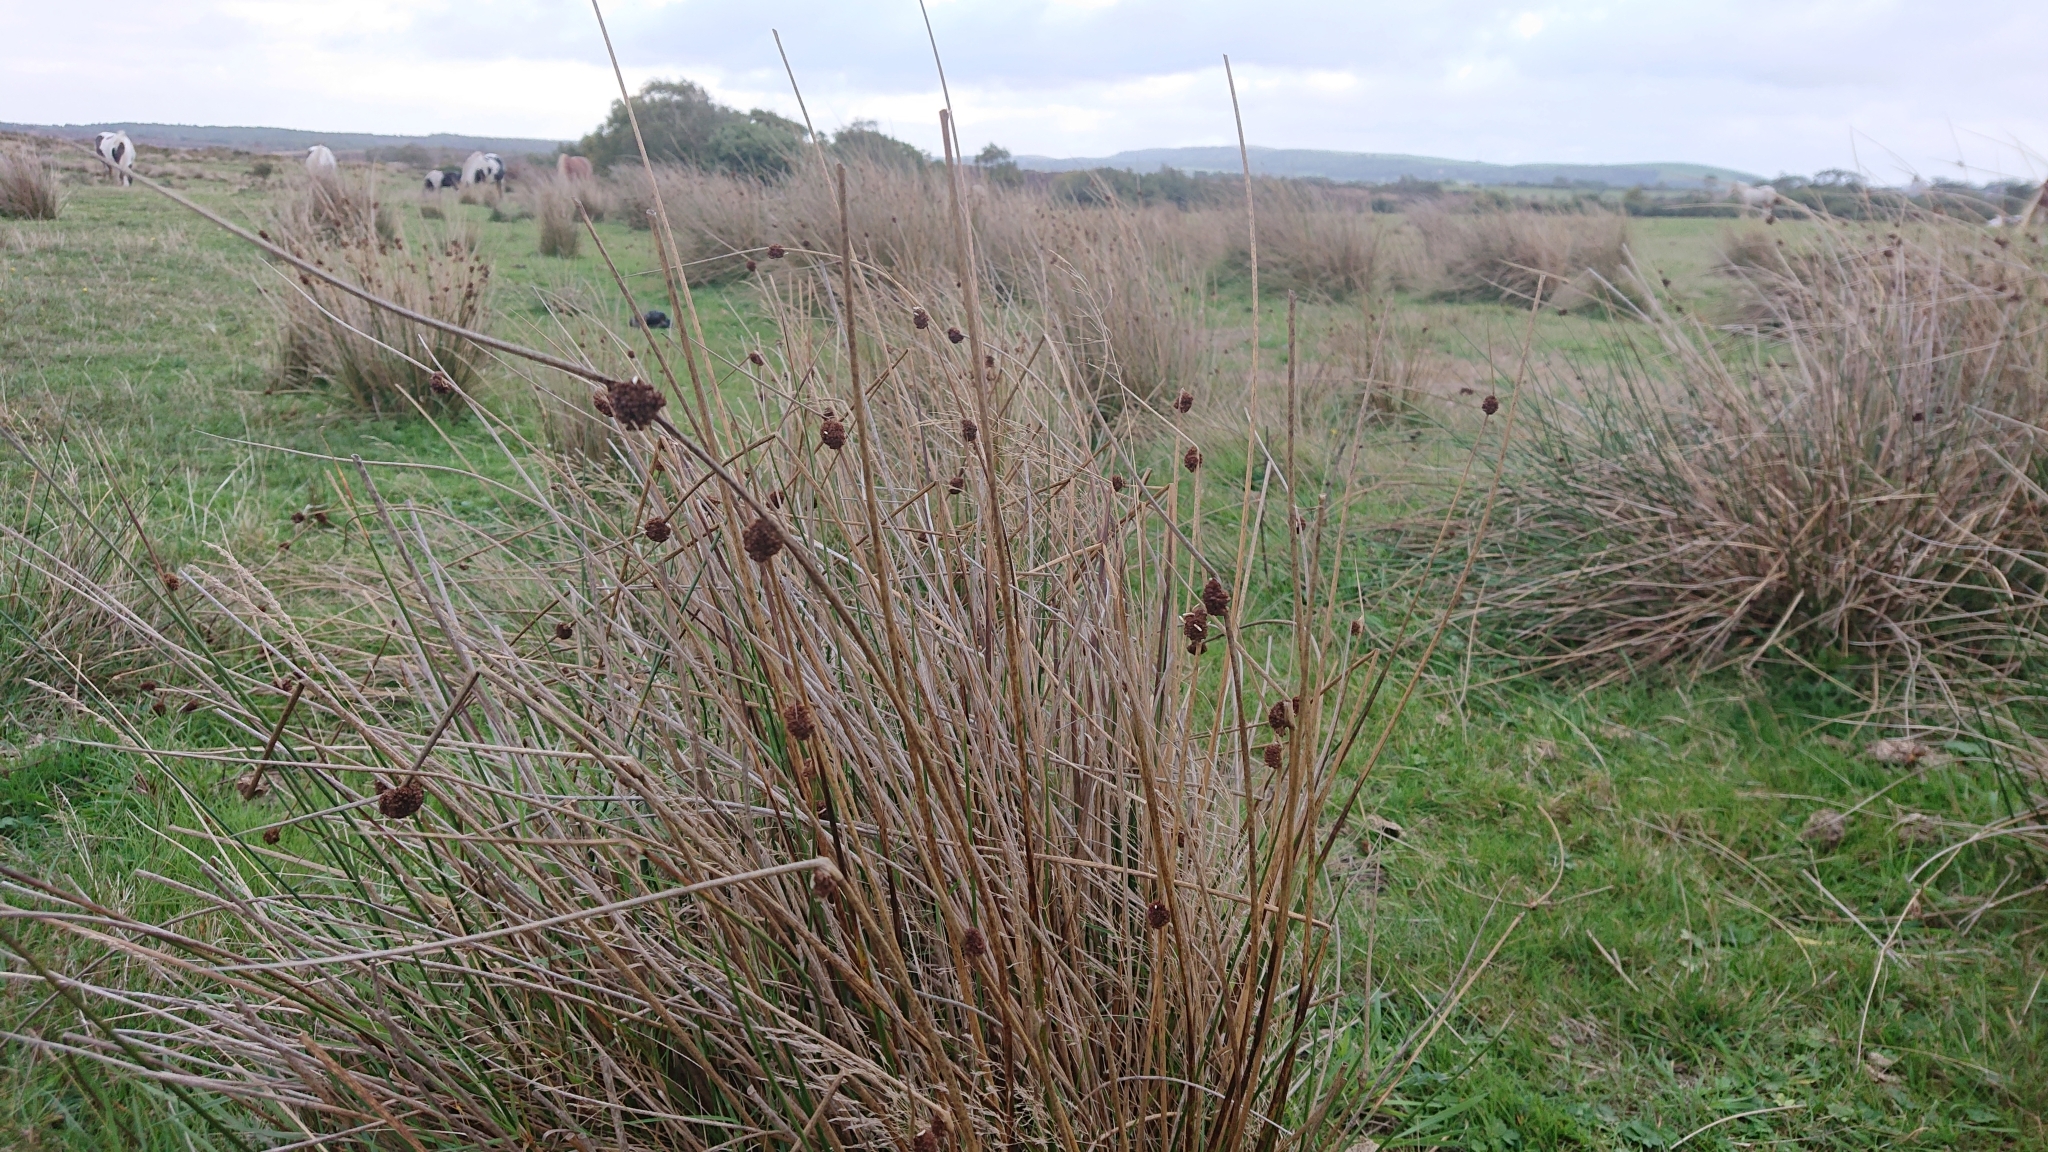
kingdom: Plantae
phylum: Tracheophyta
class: Liliopsida
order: Poales
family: Juncaceae
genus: Juncus
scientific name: Juncus conglomeratus
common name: Compact rush
